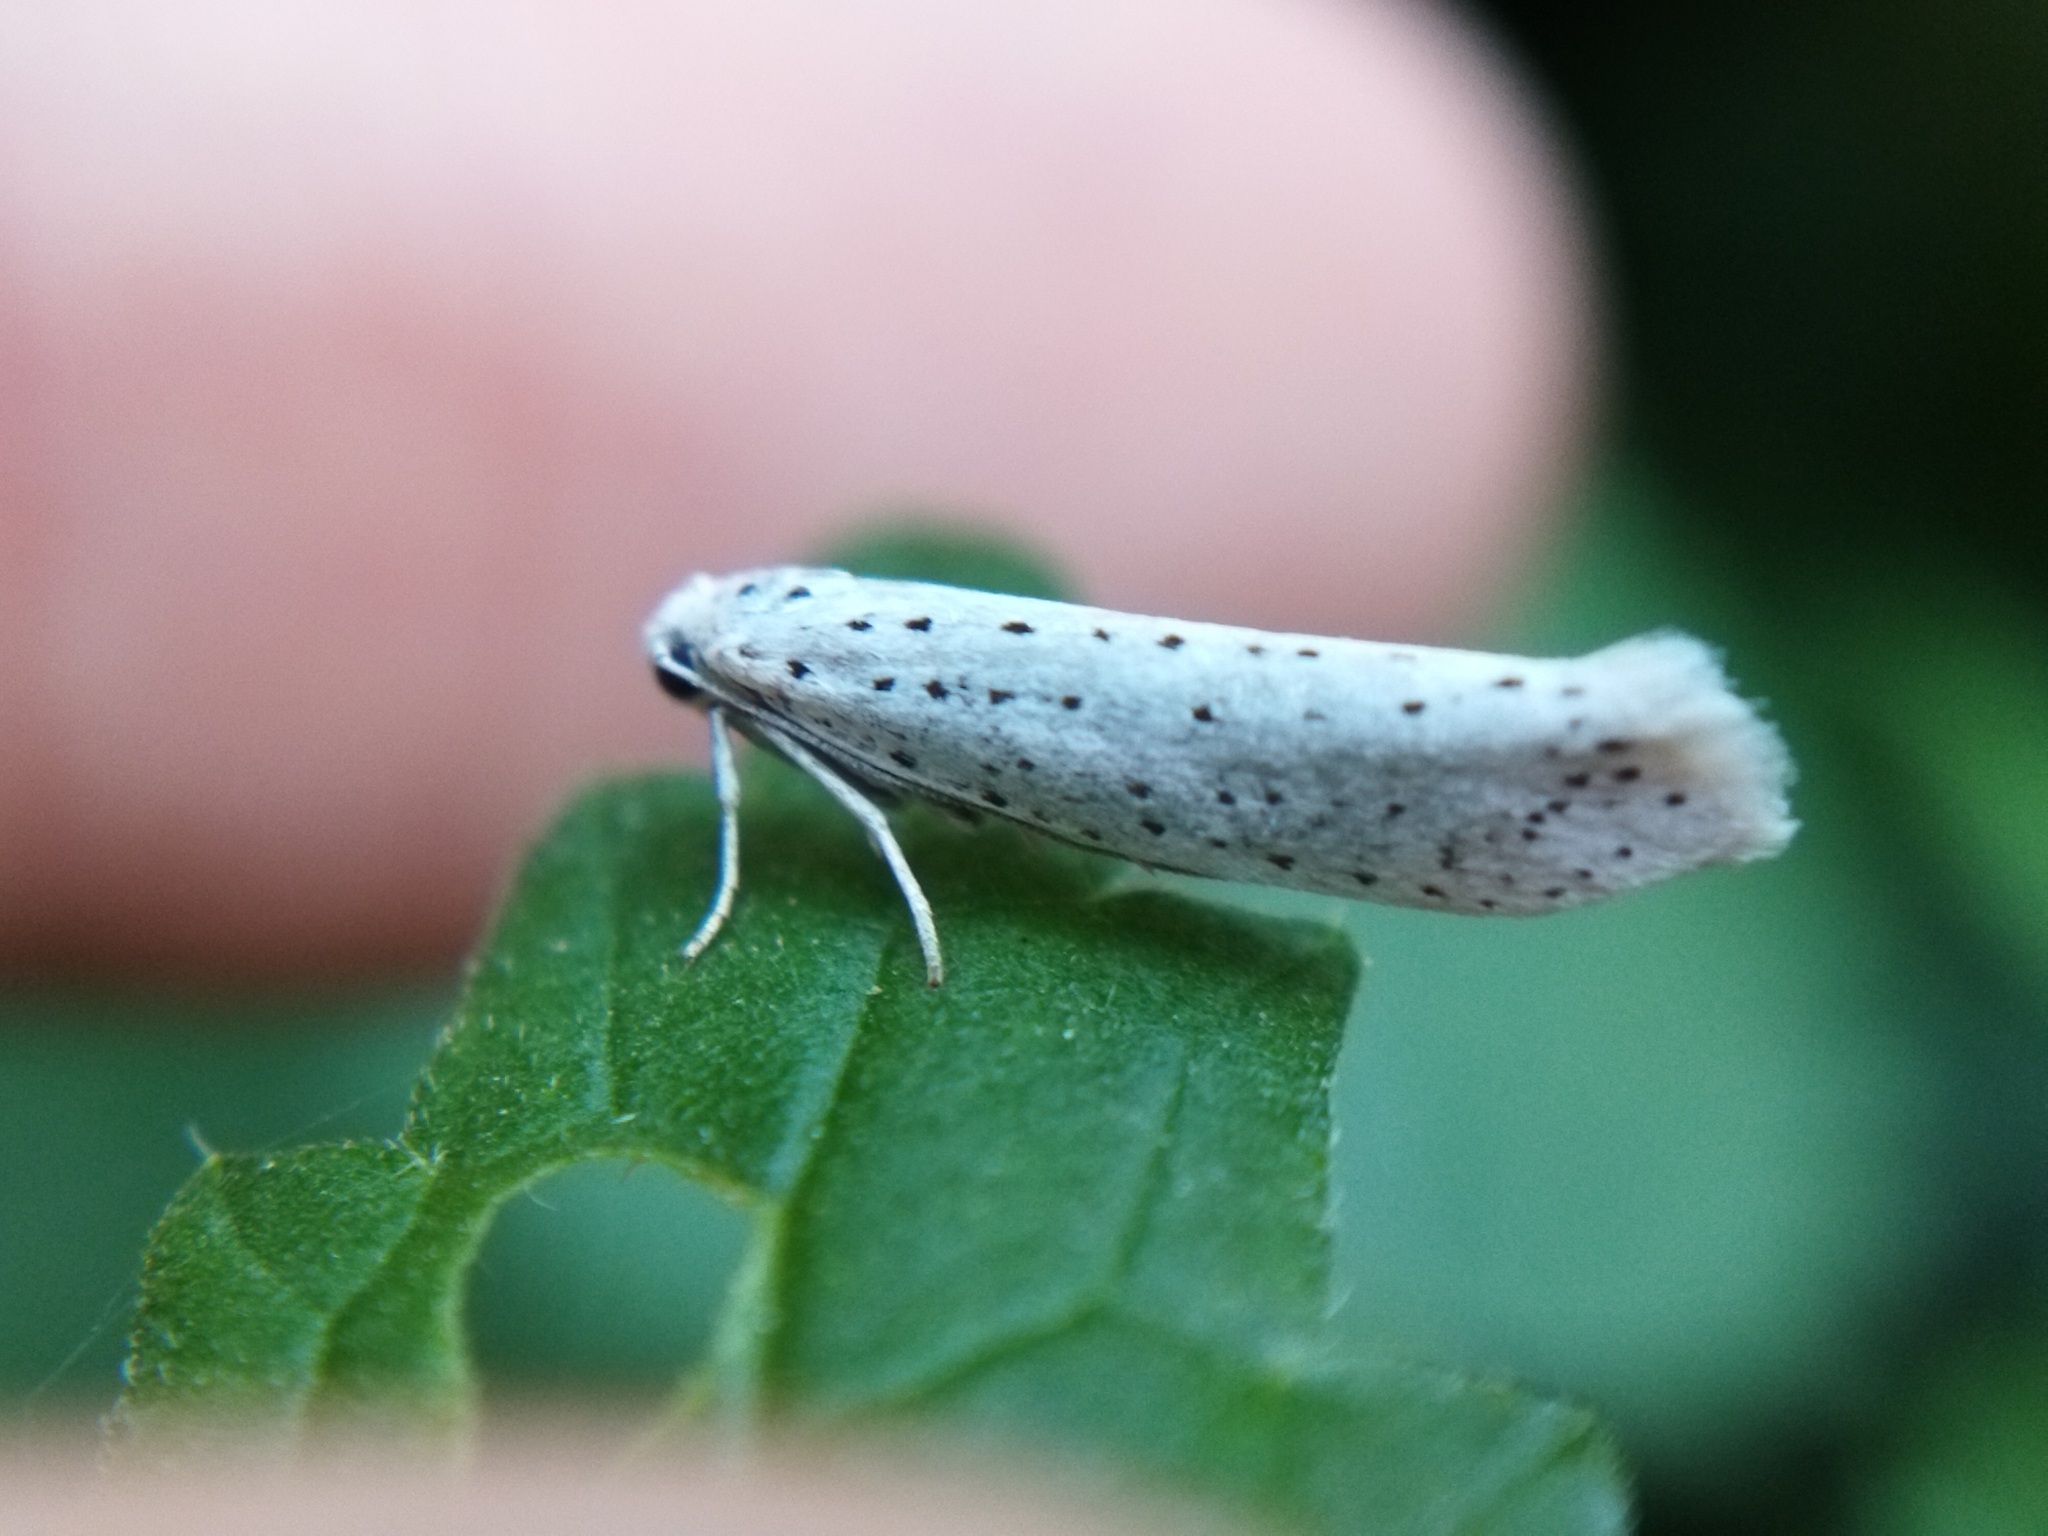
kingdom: Animalia
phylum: Arthropoda
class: Insecta
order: Lepidoptera
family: Yponomeutidae
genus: Yponomeuta
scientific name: Yponomeuta evonymella
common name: Bird-cherry ermine
